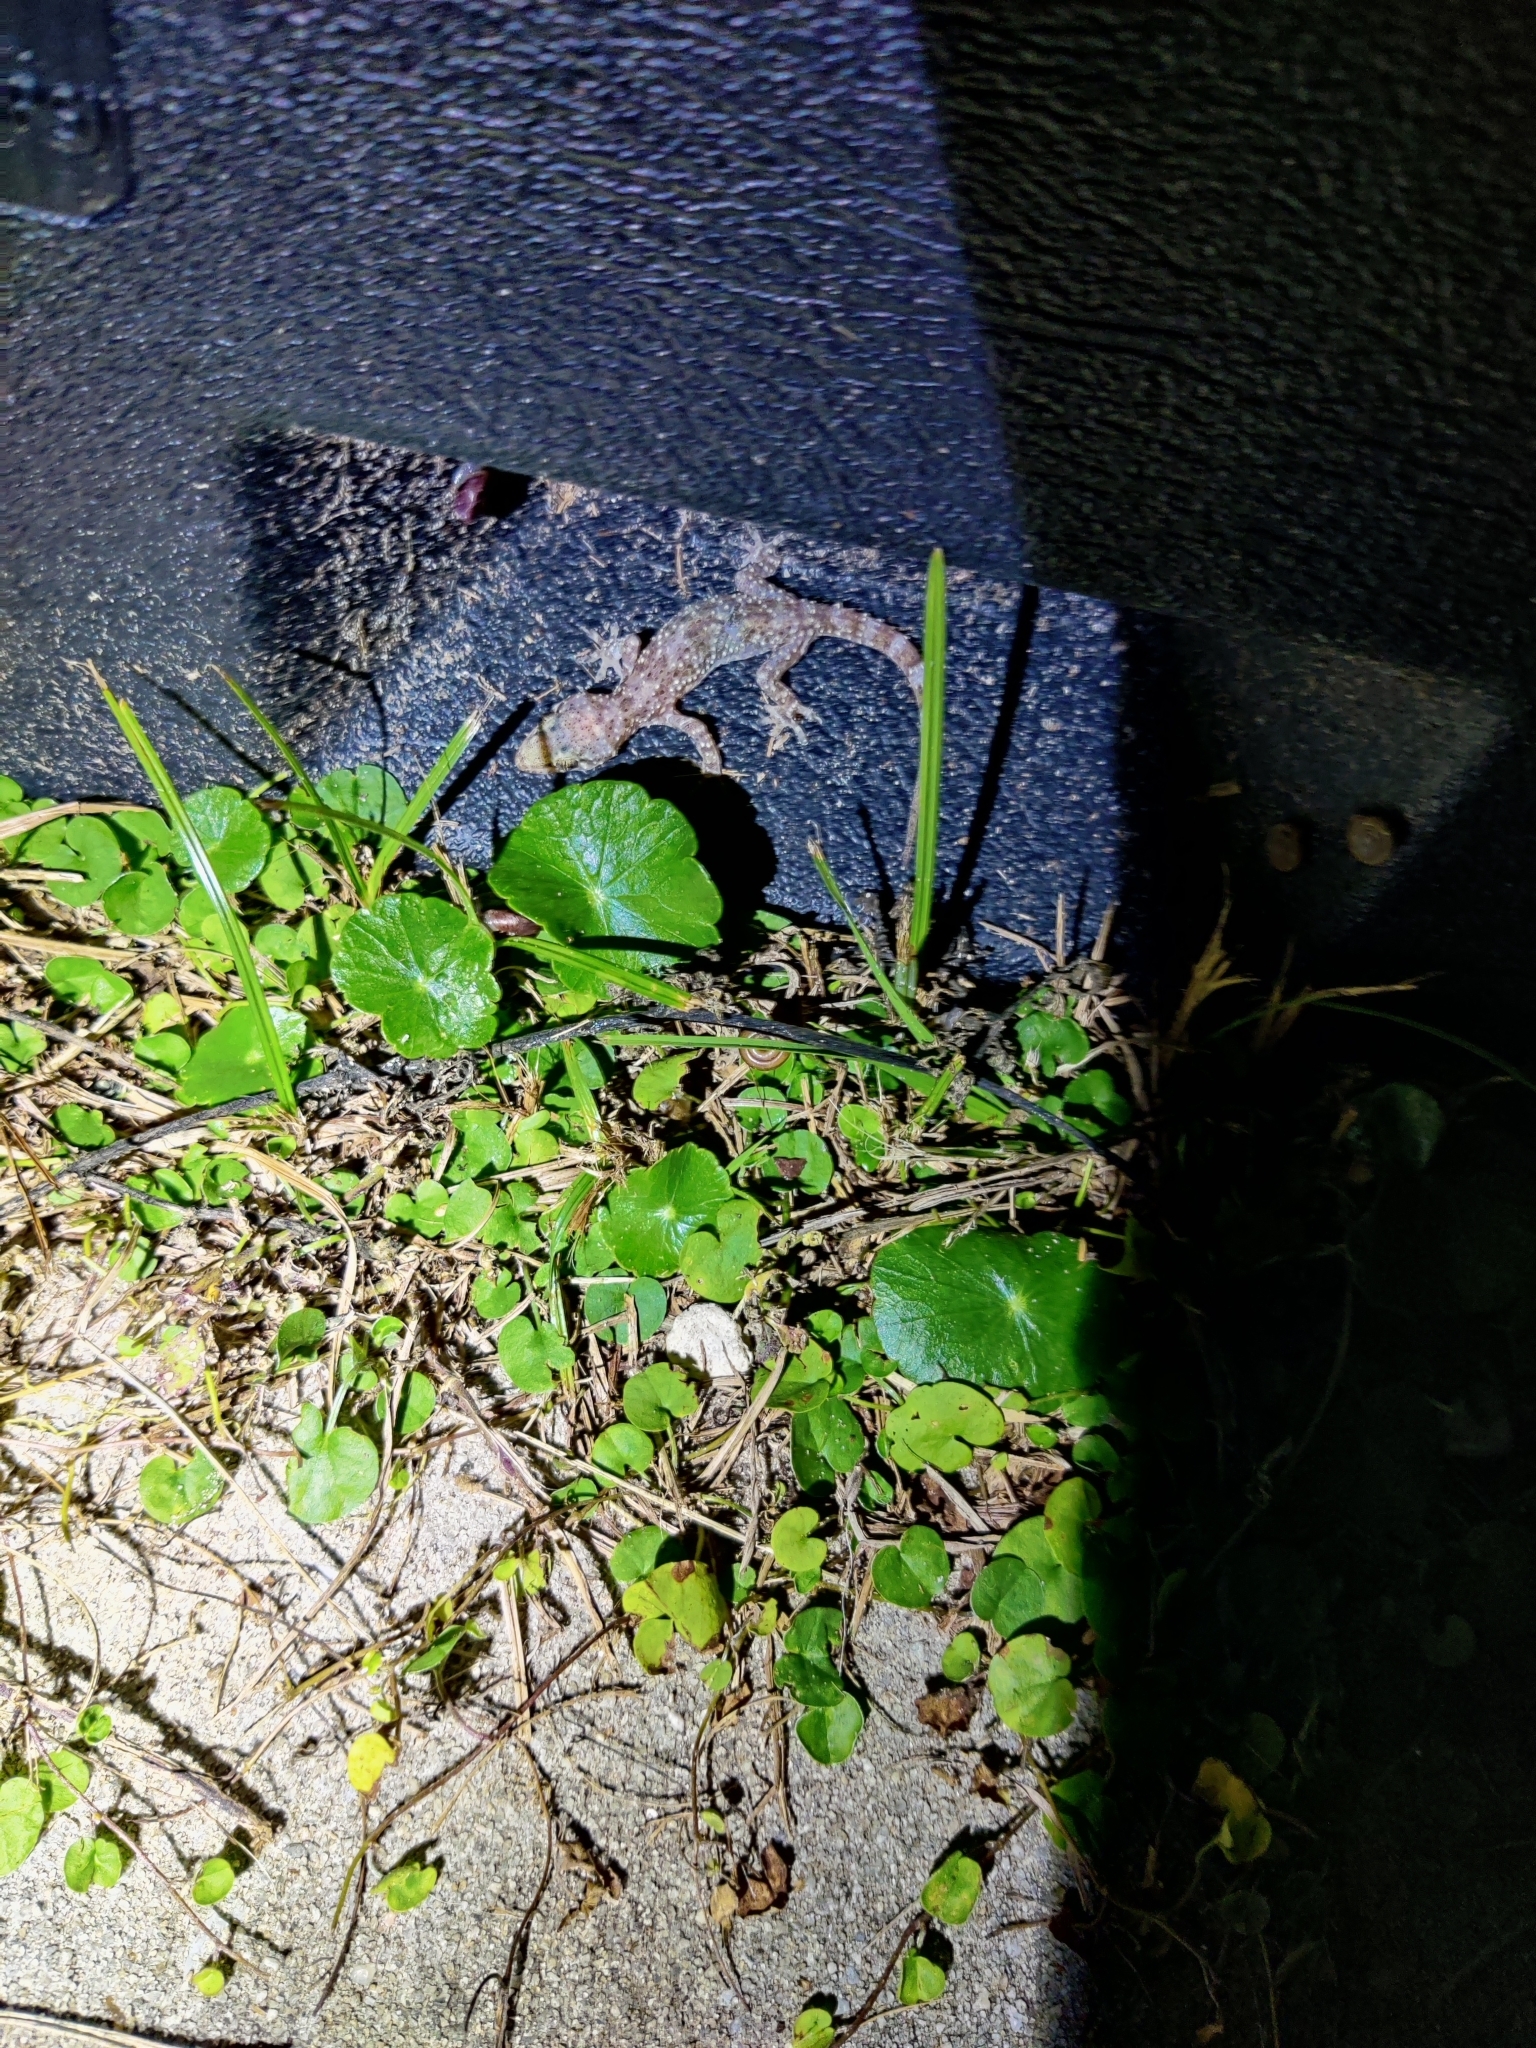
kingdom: Animalia
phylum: Chordata
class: Squamata
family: Gekkonidae
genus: Hemidactylus
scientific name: Hemidactylus turcicus
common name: Turkish gecko
